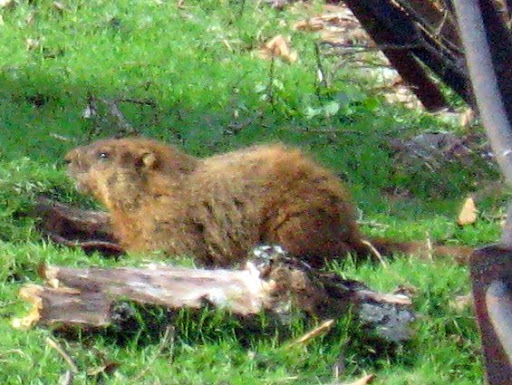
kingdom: Animalia
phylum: Chordata
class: Mammalia
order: Rodentia
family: Sciuridae
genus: Marmota
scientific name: Marmota monax
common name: Groundhog
